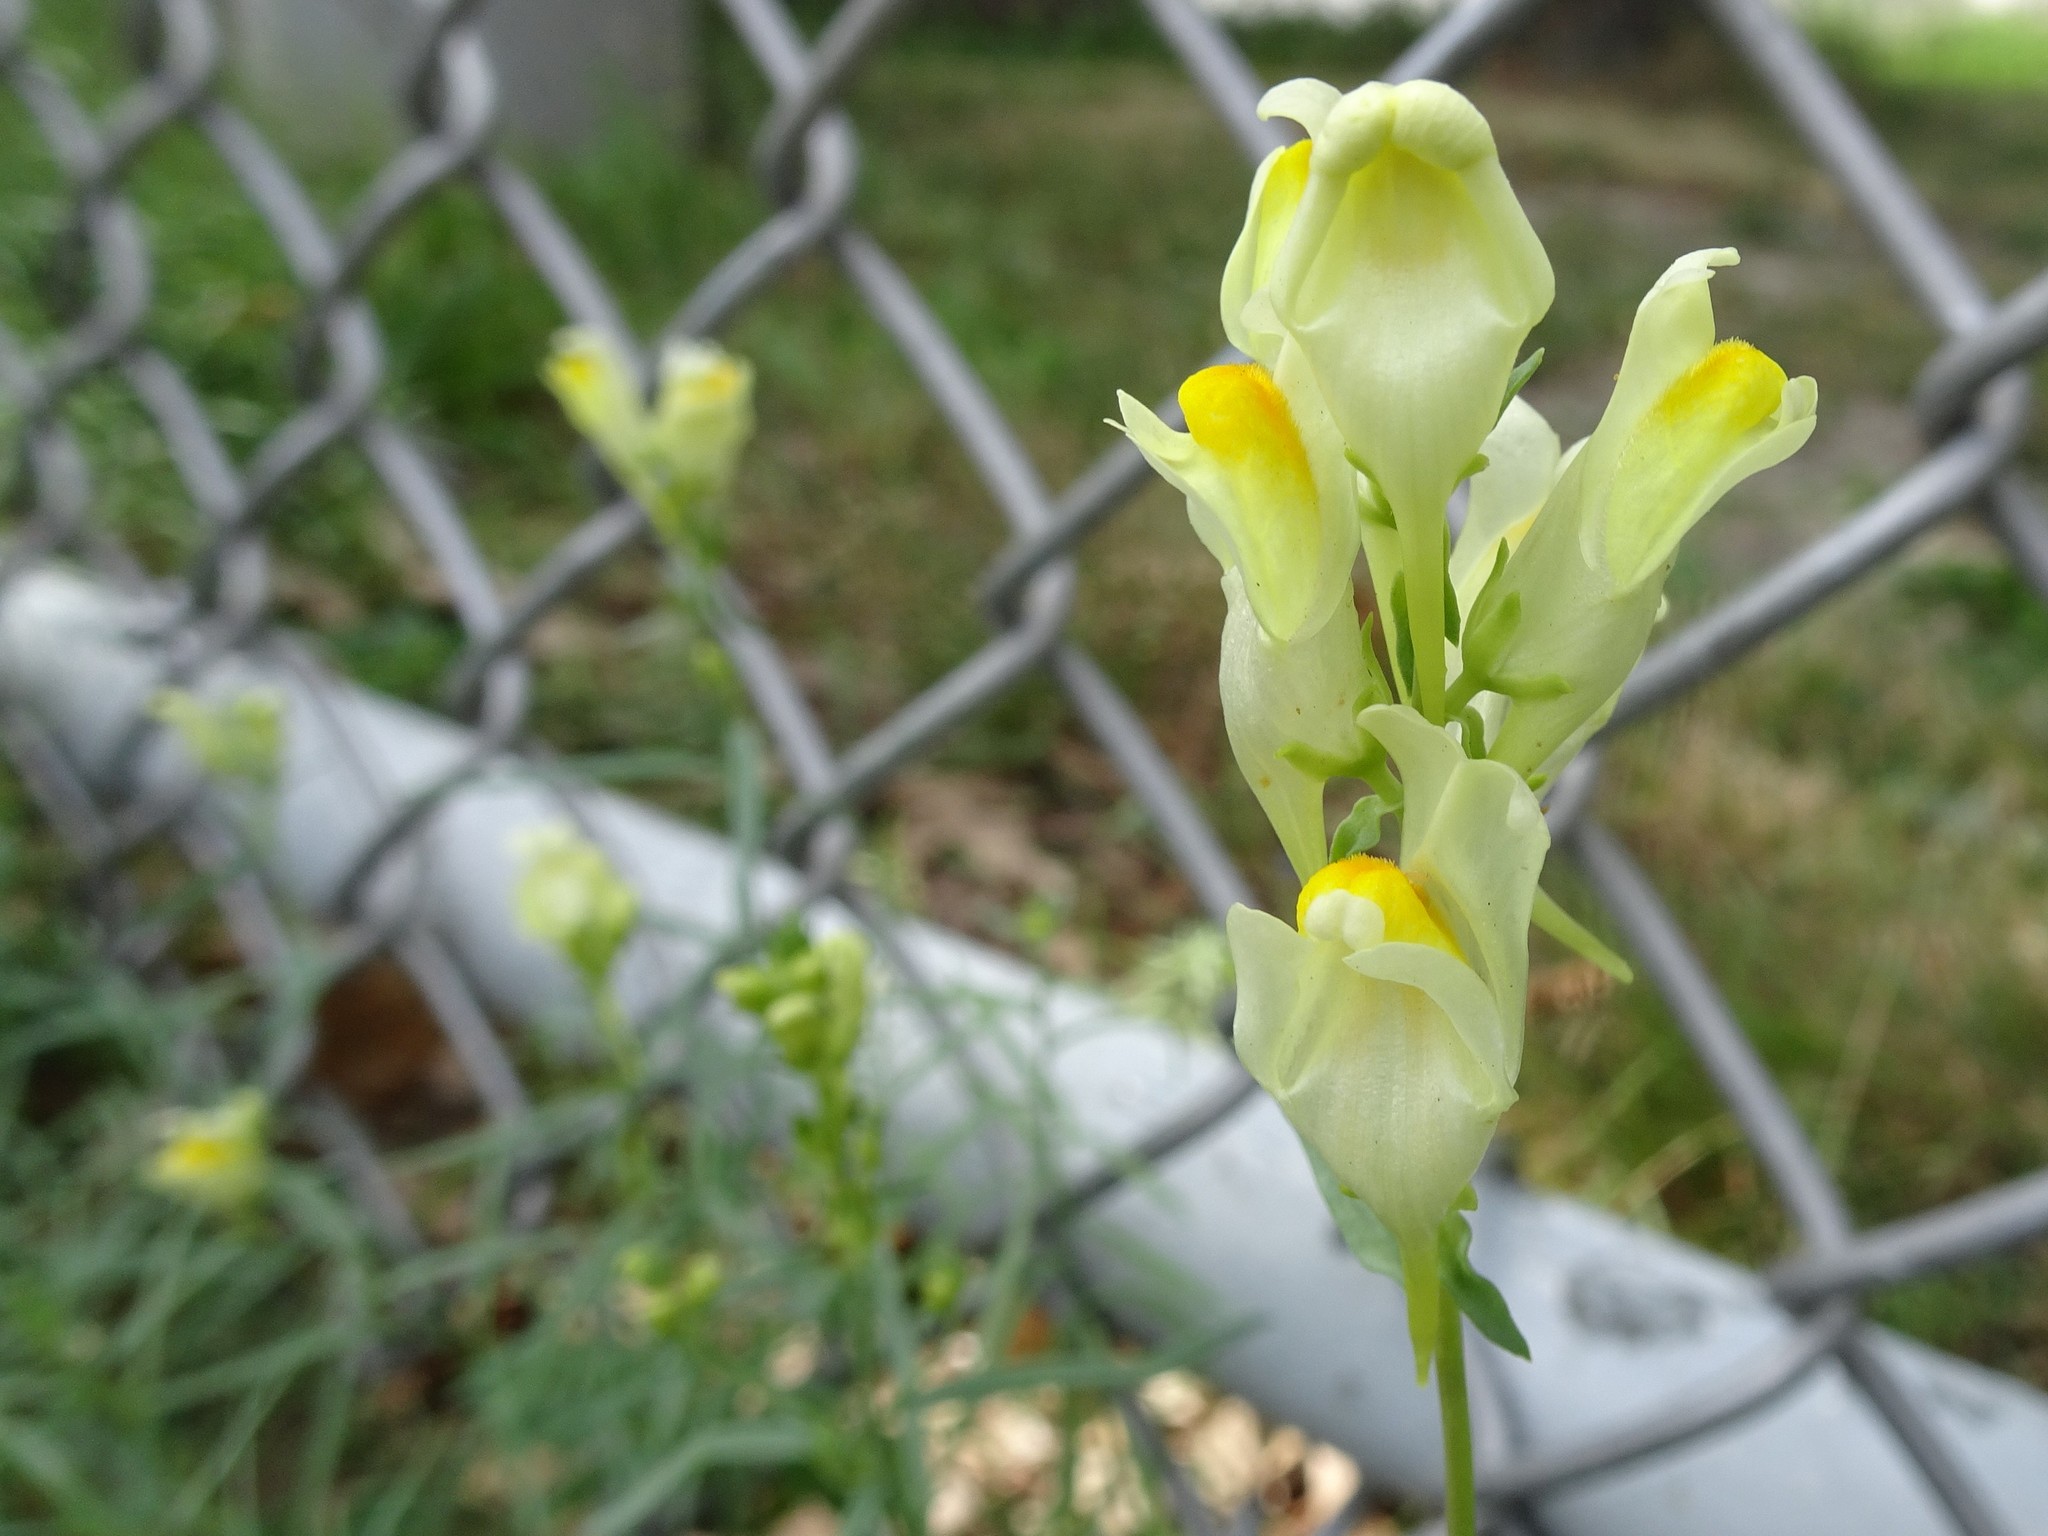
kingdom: Plantae
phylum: Tracheophyta
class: Magnoliopsida
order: Lamiales
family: Plantaginaceae
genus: Linaria
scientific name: Linaria vulgaris
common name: Butter and eggs
